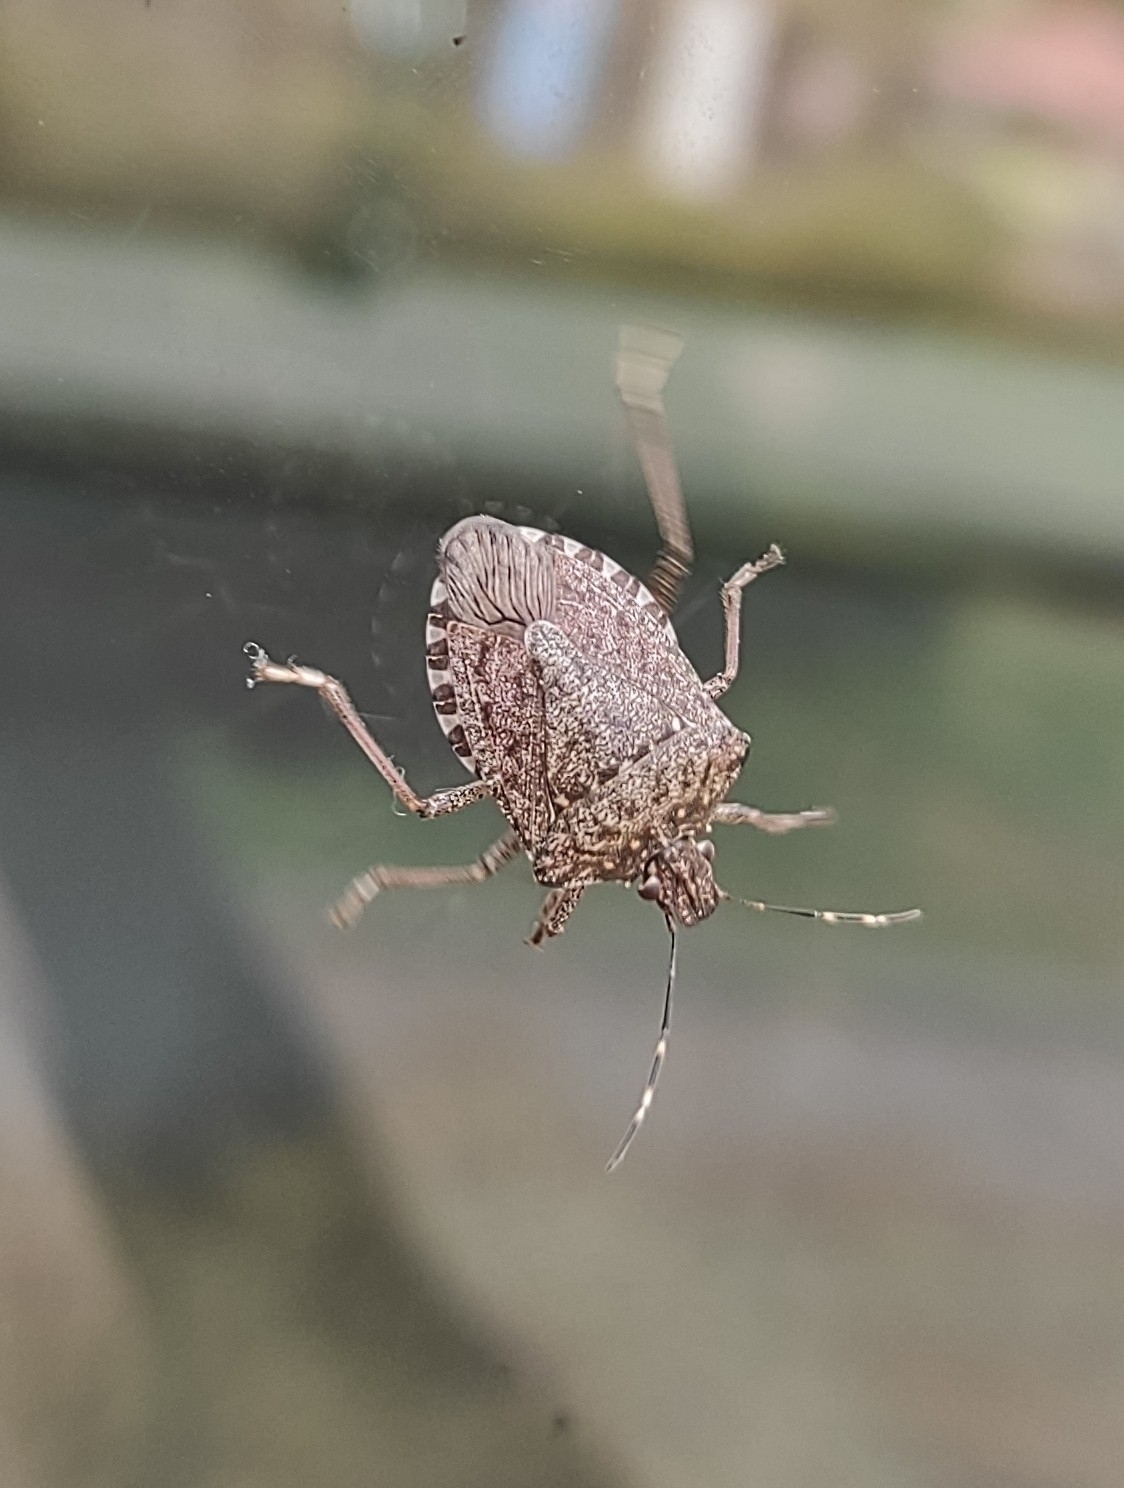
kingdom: Animalia
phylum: Arthropoda
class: Insecta
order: Hemiptera
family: Pentatomidae
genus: Halyomorpha
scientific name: Halyomorpha halys
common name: Brown marmorated stink bug
